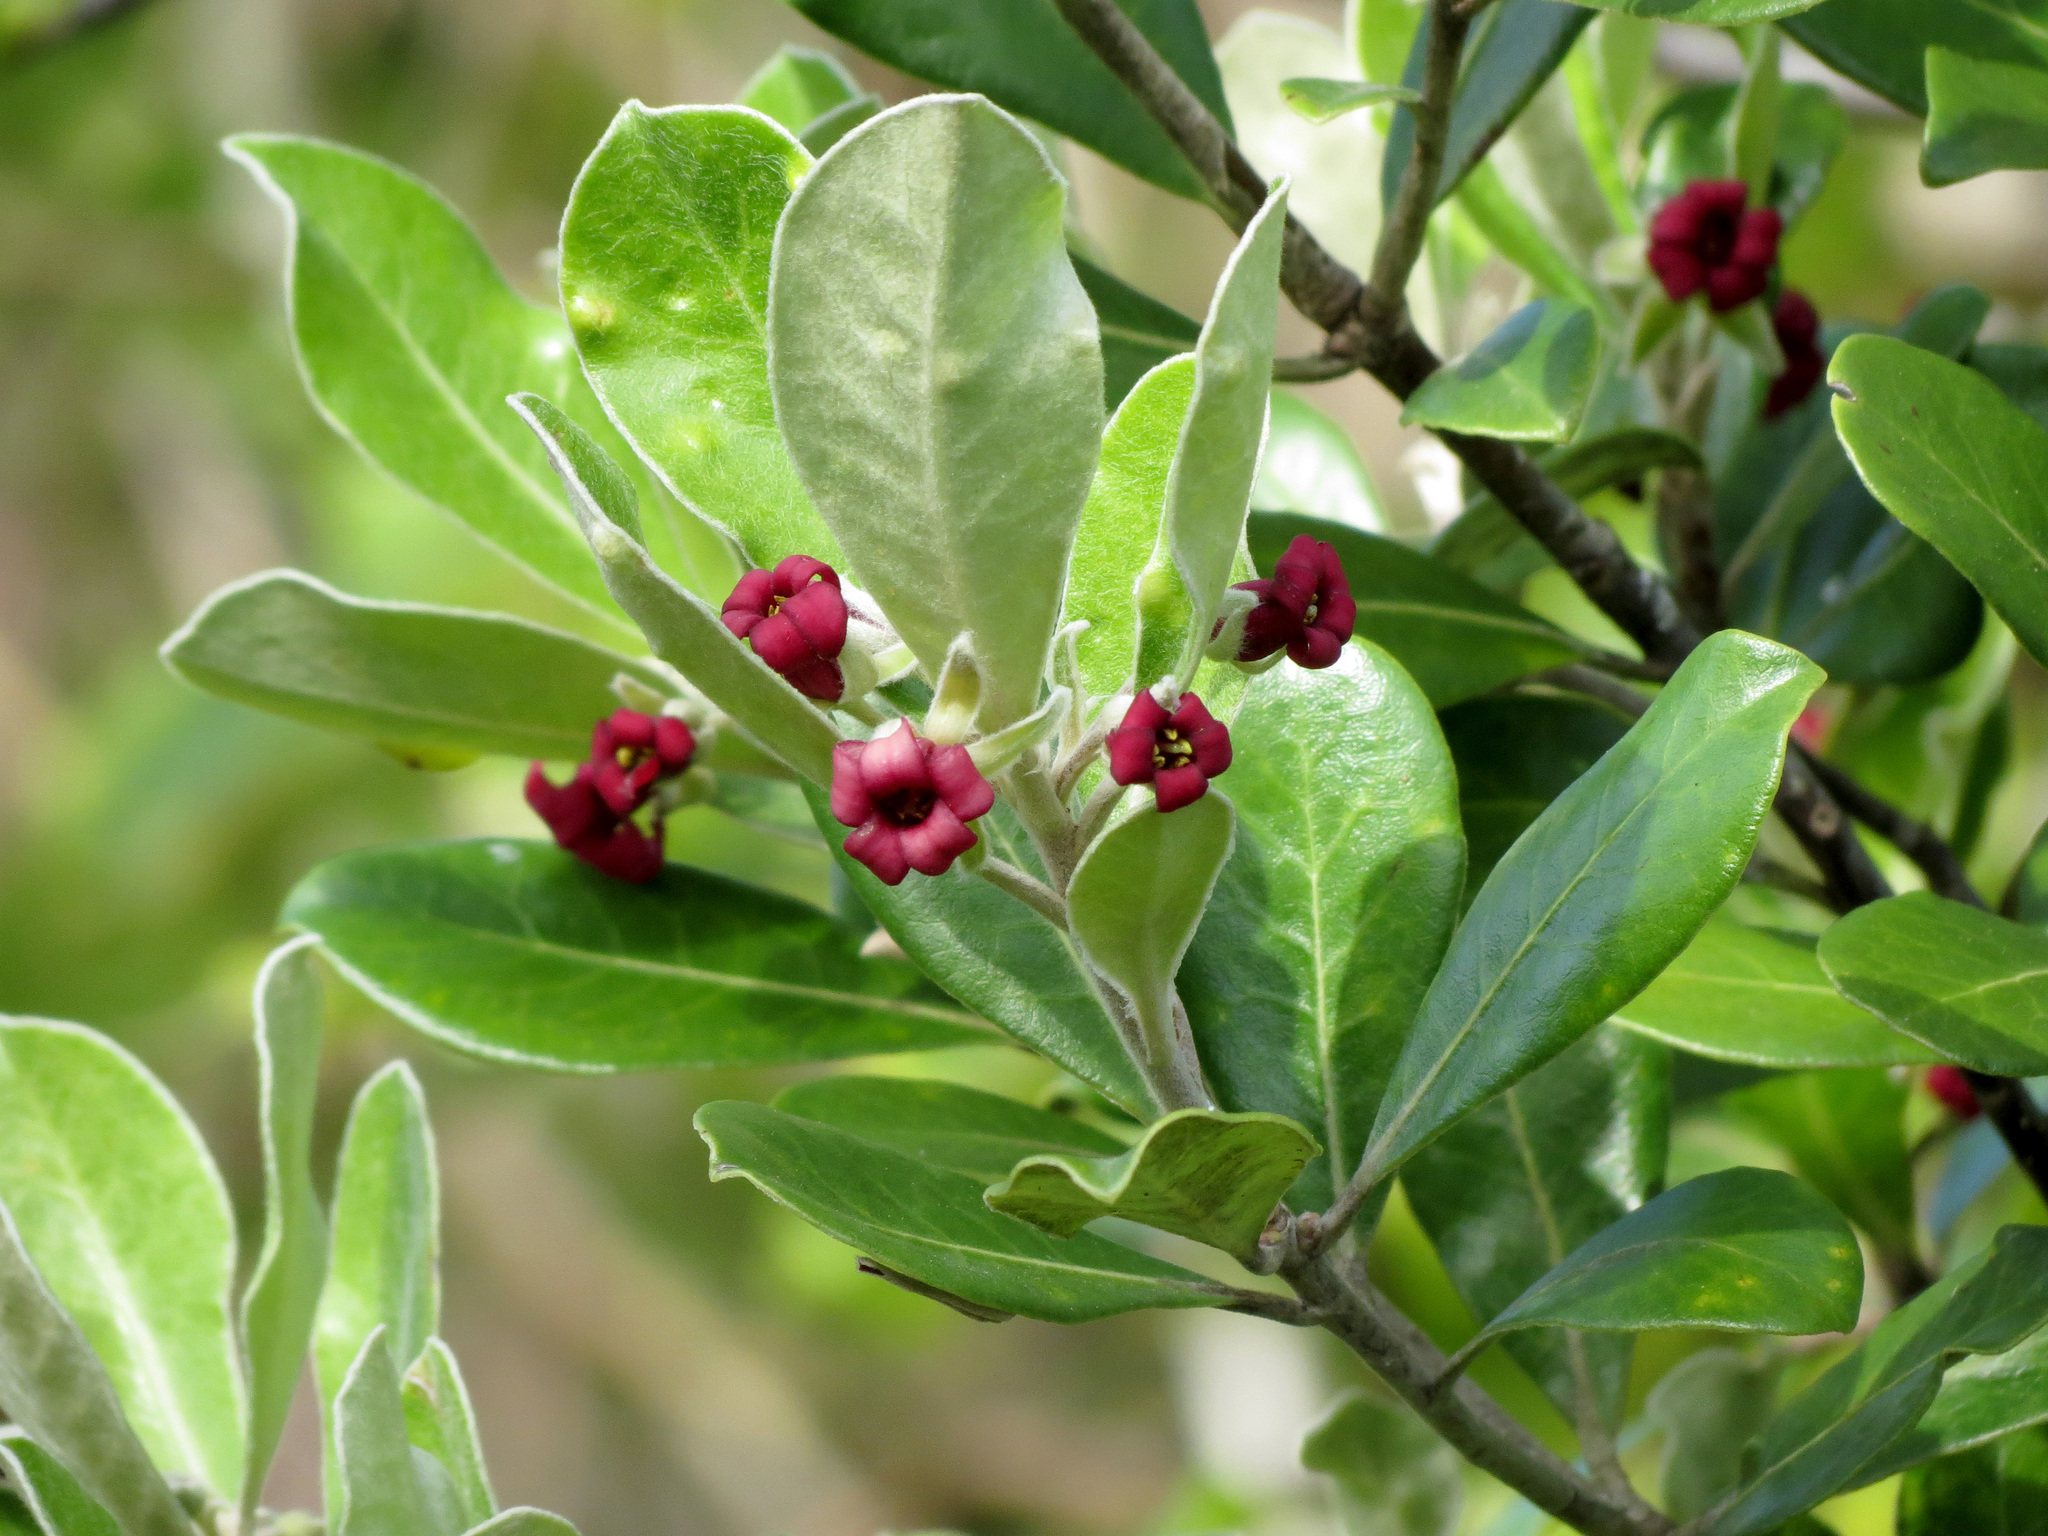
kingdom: Plantae
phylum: Tracheophyta
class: Magnoliopsida
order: Apiales
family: Pittosporaceae
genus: Pittosporum
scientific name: Pittosporum crassifolium
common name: Karo
